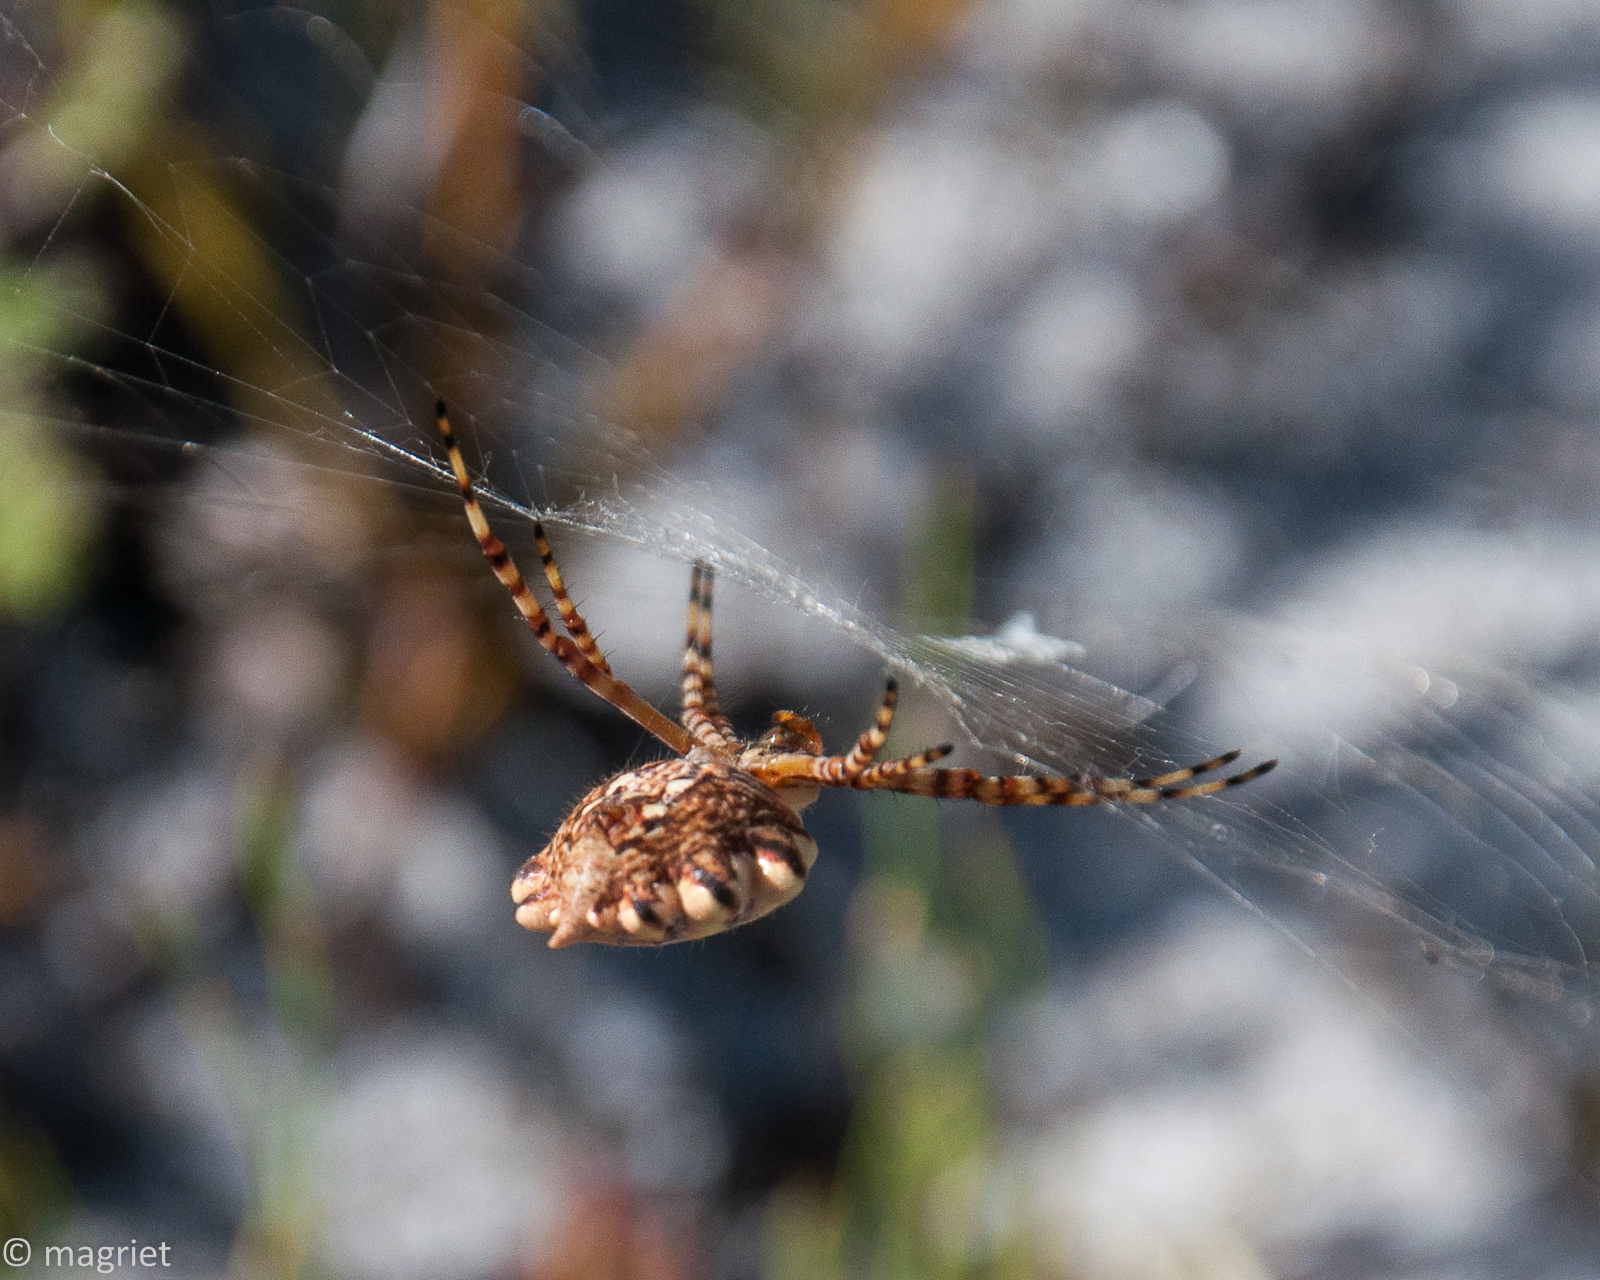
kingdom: Animalia
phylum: Arthropoda
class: Arachnida
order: Araneae
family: Araneidae
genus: Argiope
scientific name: Argiope australis
